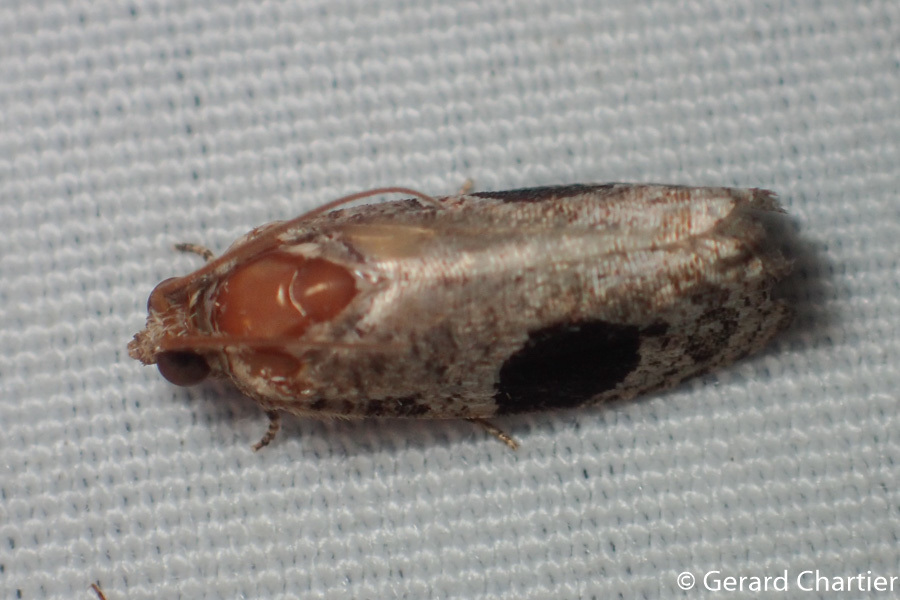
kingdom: Animalia
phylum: Arthropoda
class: Insecta
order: Lepidoptera
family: Tortricidae
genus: Ophiorrhabda
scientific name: Ophiorrhabda mormopa
